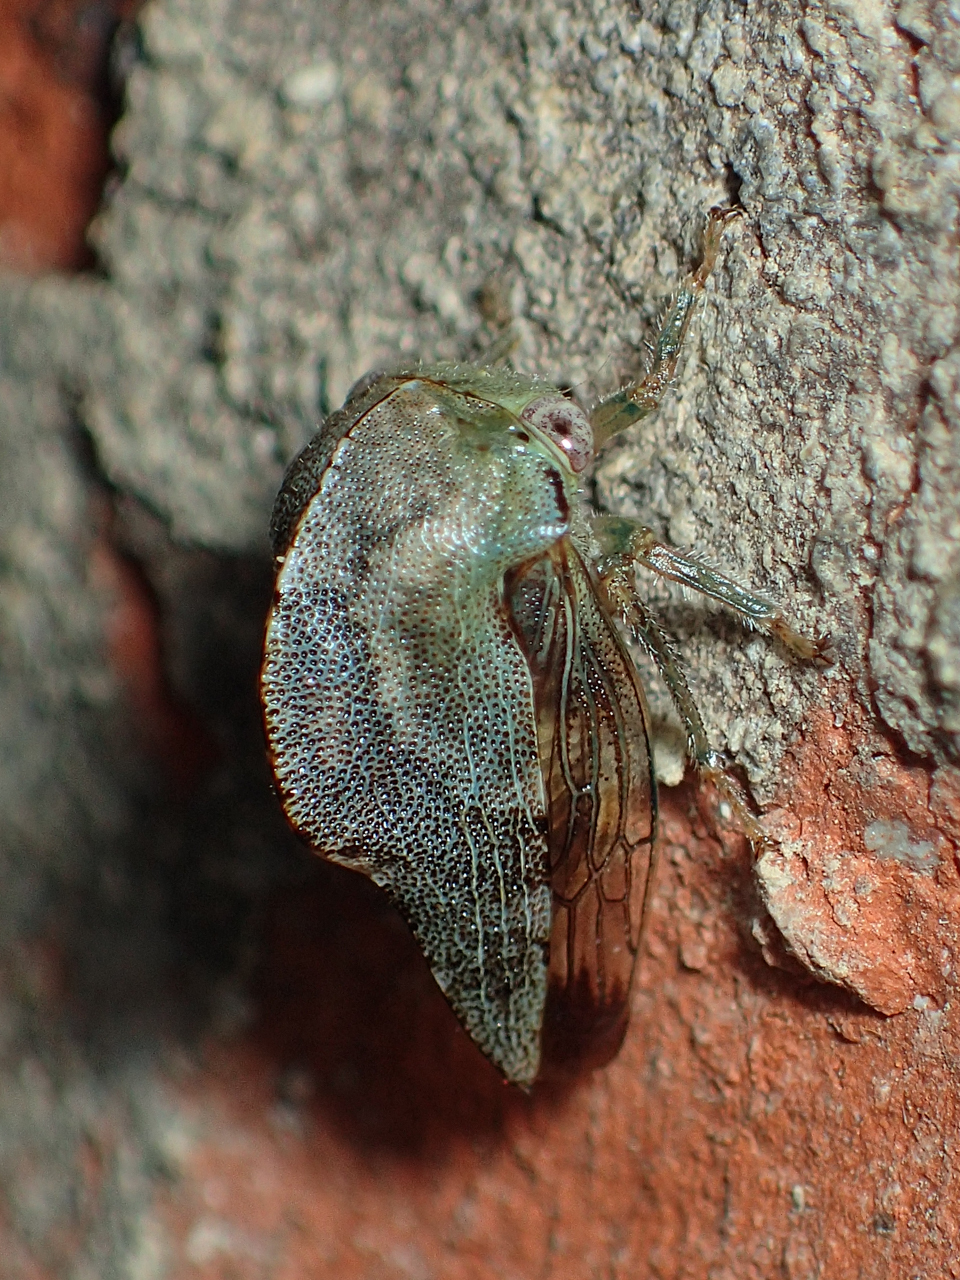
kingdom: Animalia
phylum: Arthropoda
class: Insecta
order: Hemiptera
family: Membracidae
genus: Telamona
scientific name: Telamona reclivata
